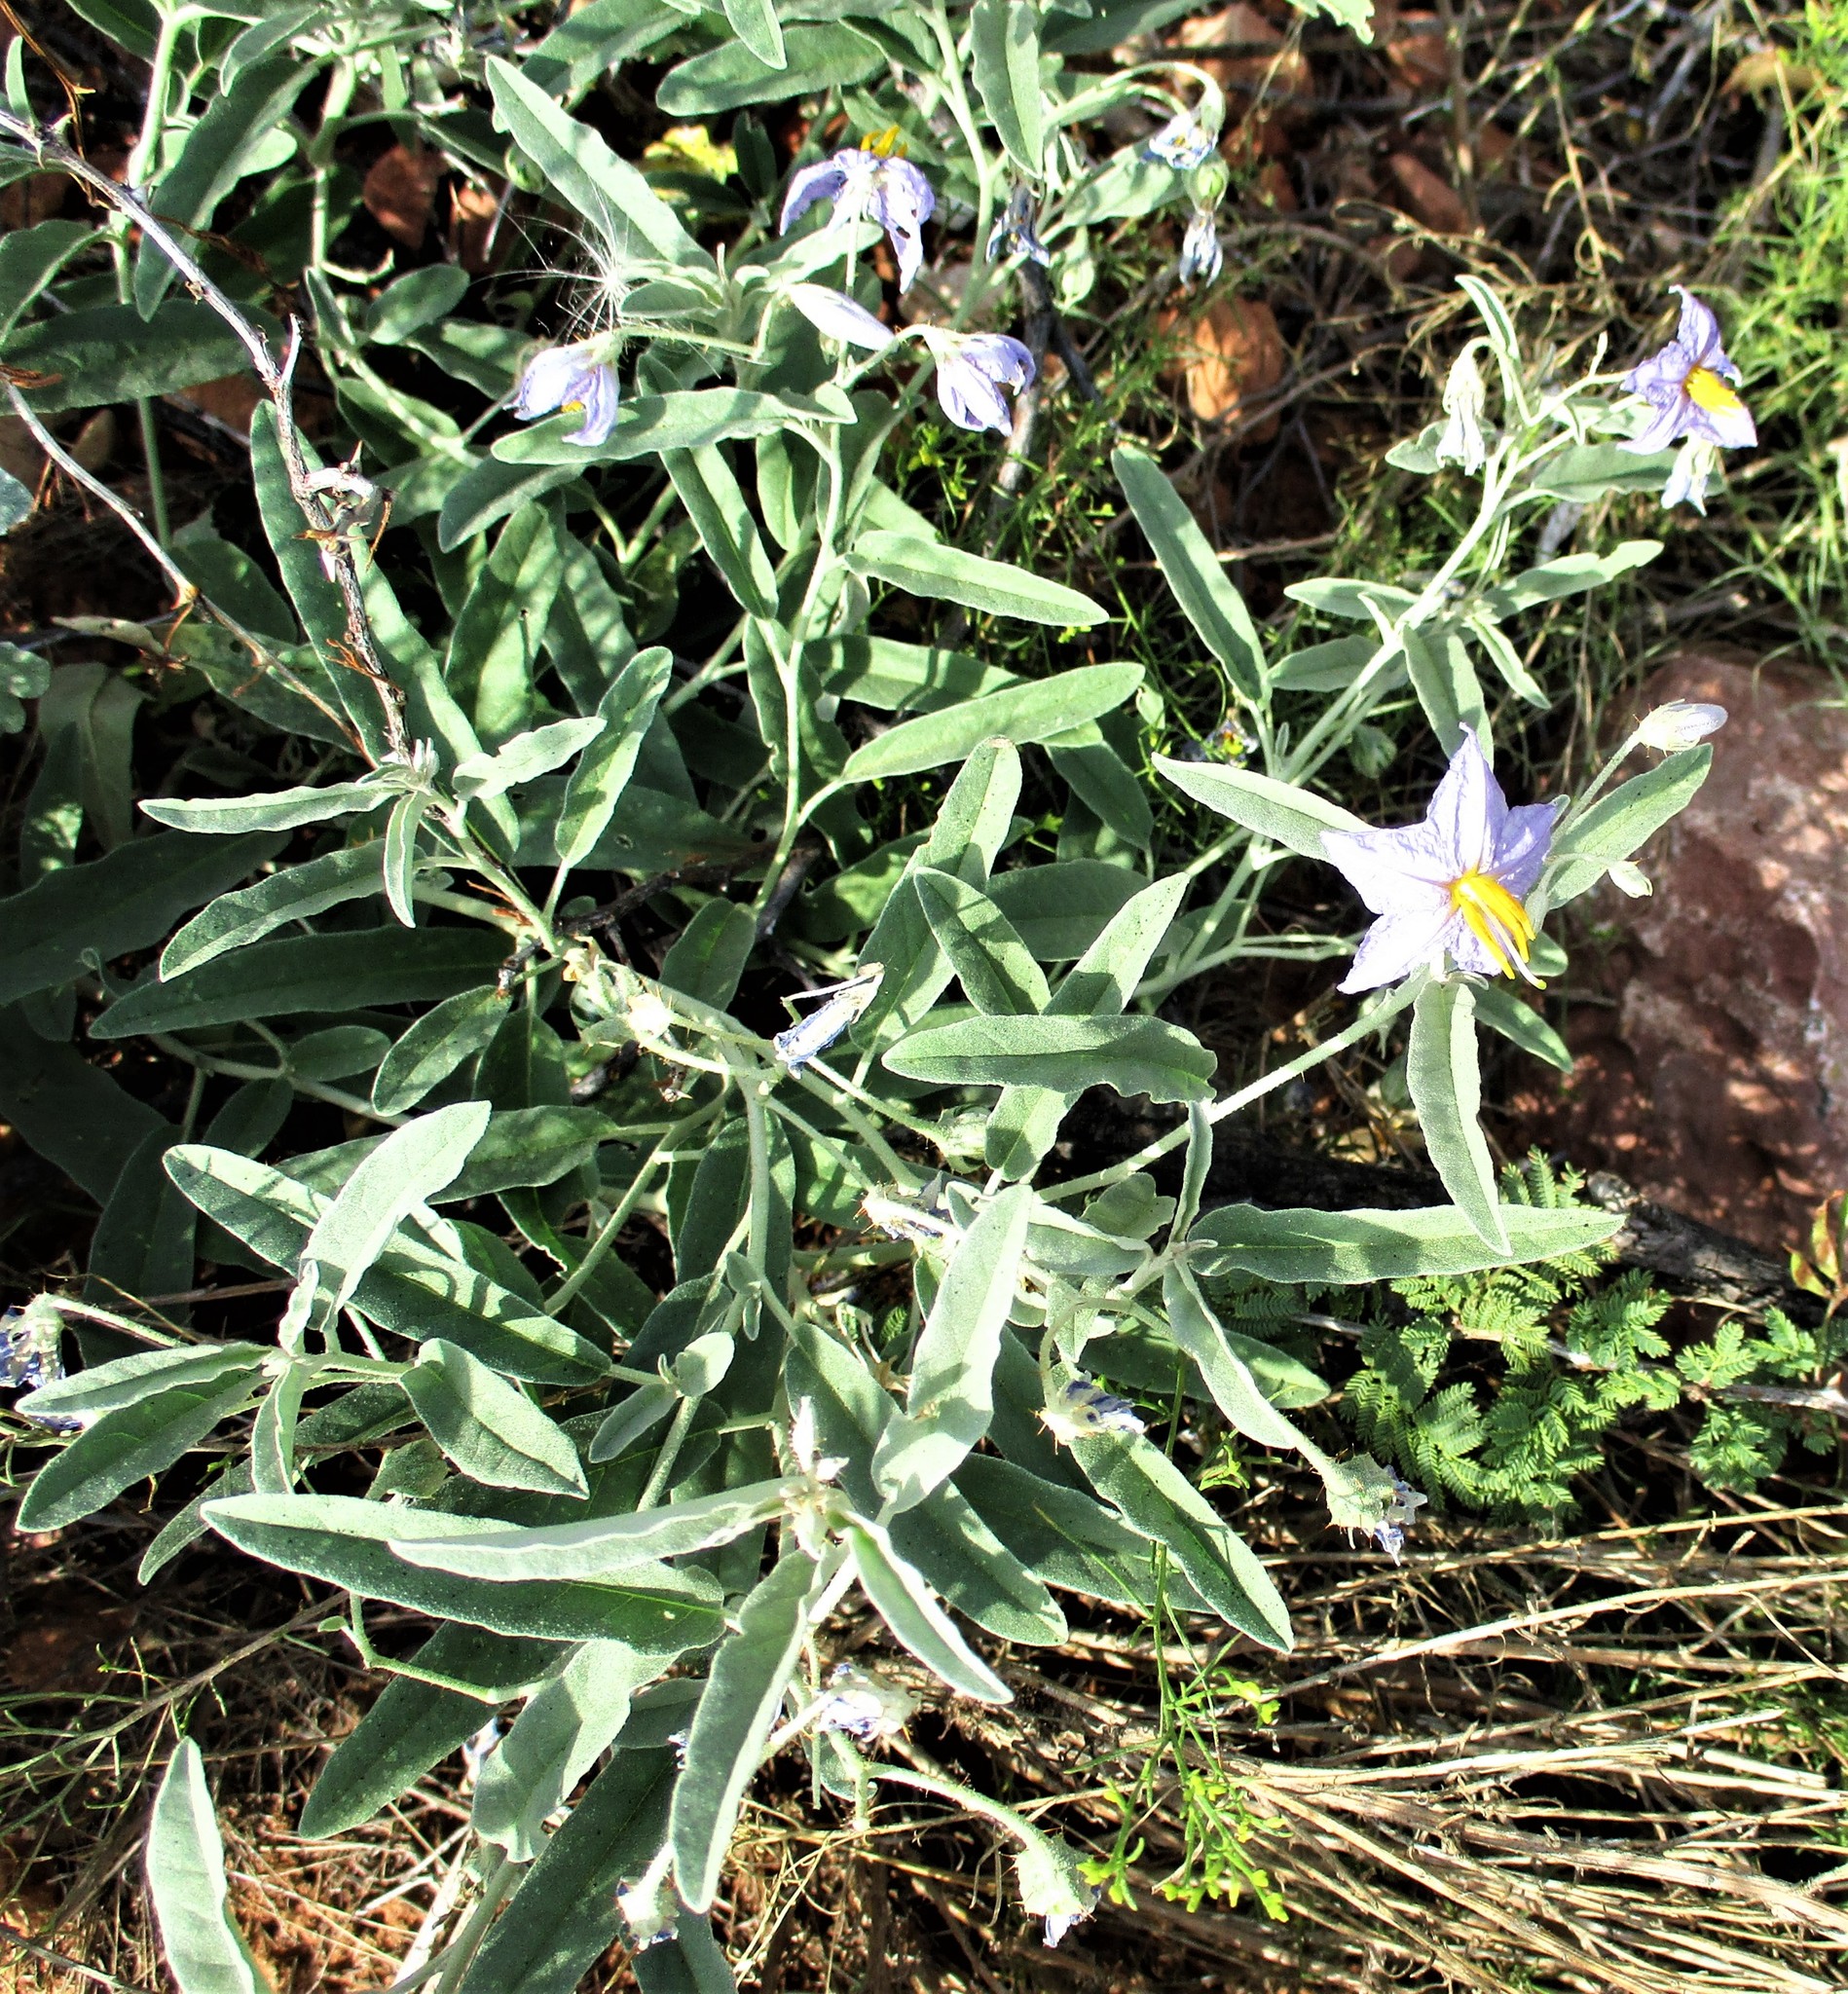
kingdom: Plantae
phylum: Tracheophyta
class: Magnoliopsida
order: Solanales
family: Solanaceae
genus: Solanum
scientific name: Solanum elaeagnifolium
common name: Silverleaf nightshade
